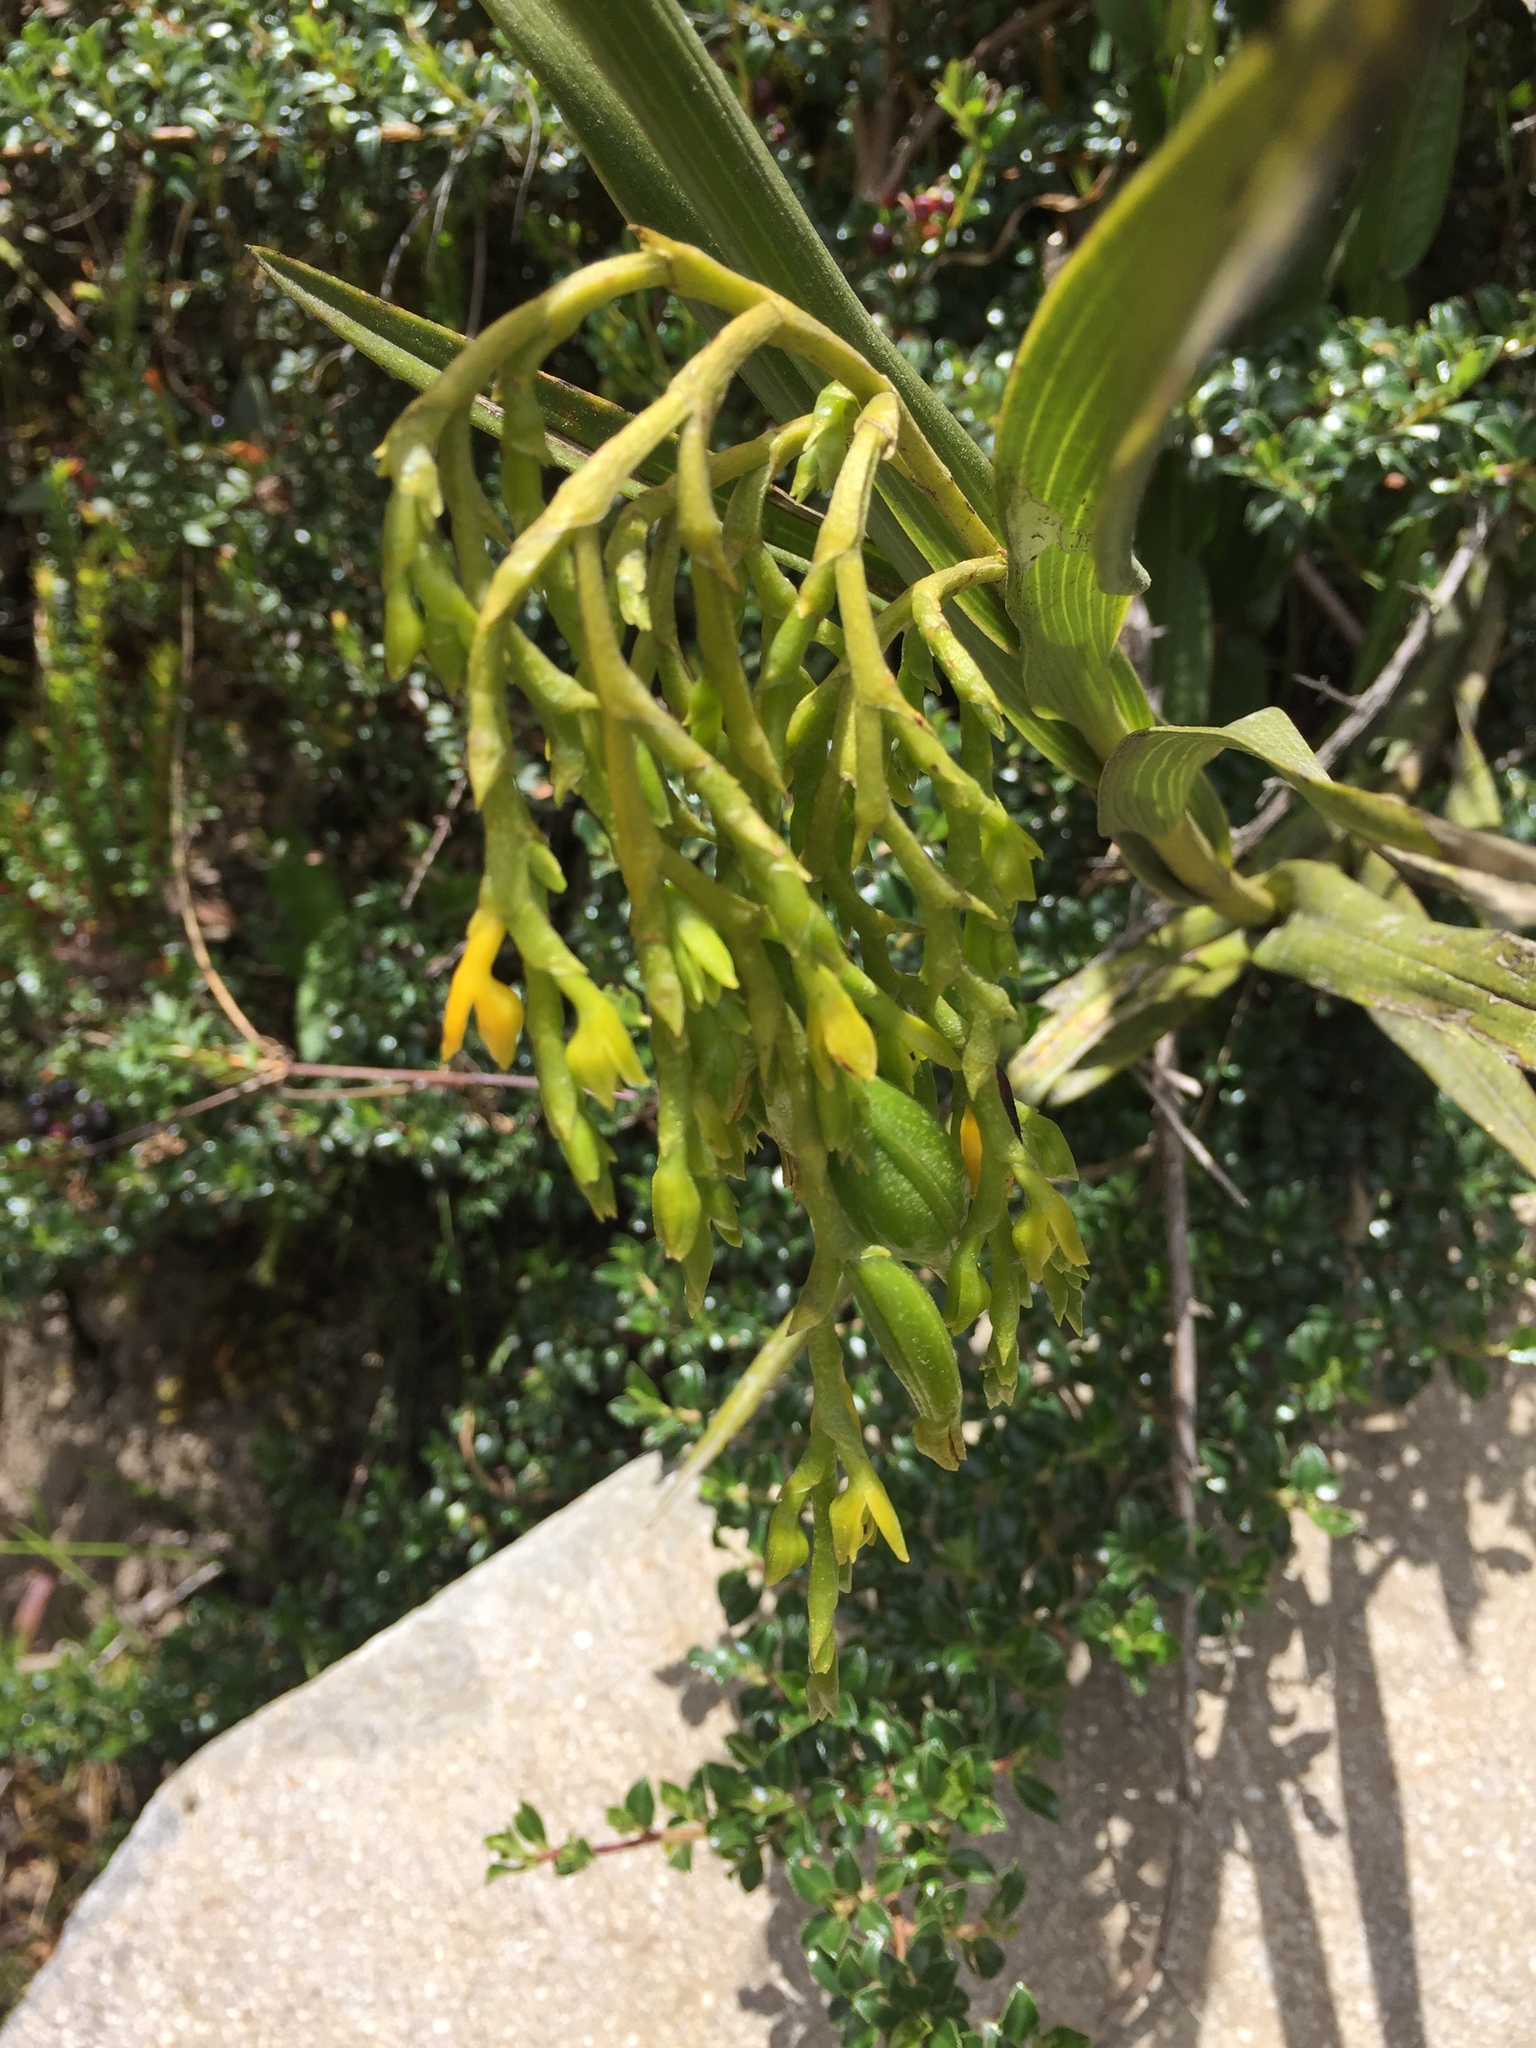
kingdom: Plantae
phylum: Tracheophyta
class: Liliopsida
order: Asparagales
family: Orchidaceae
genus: Epidendrum
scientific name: Epidendrum frutex
